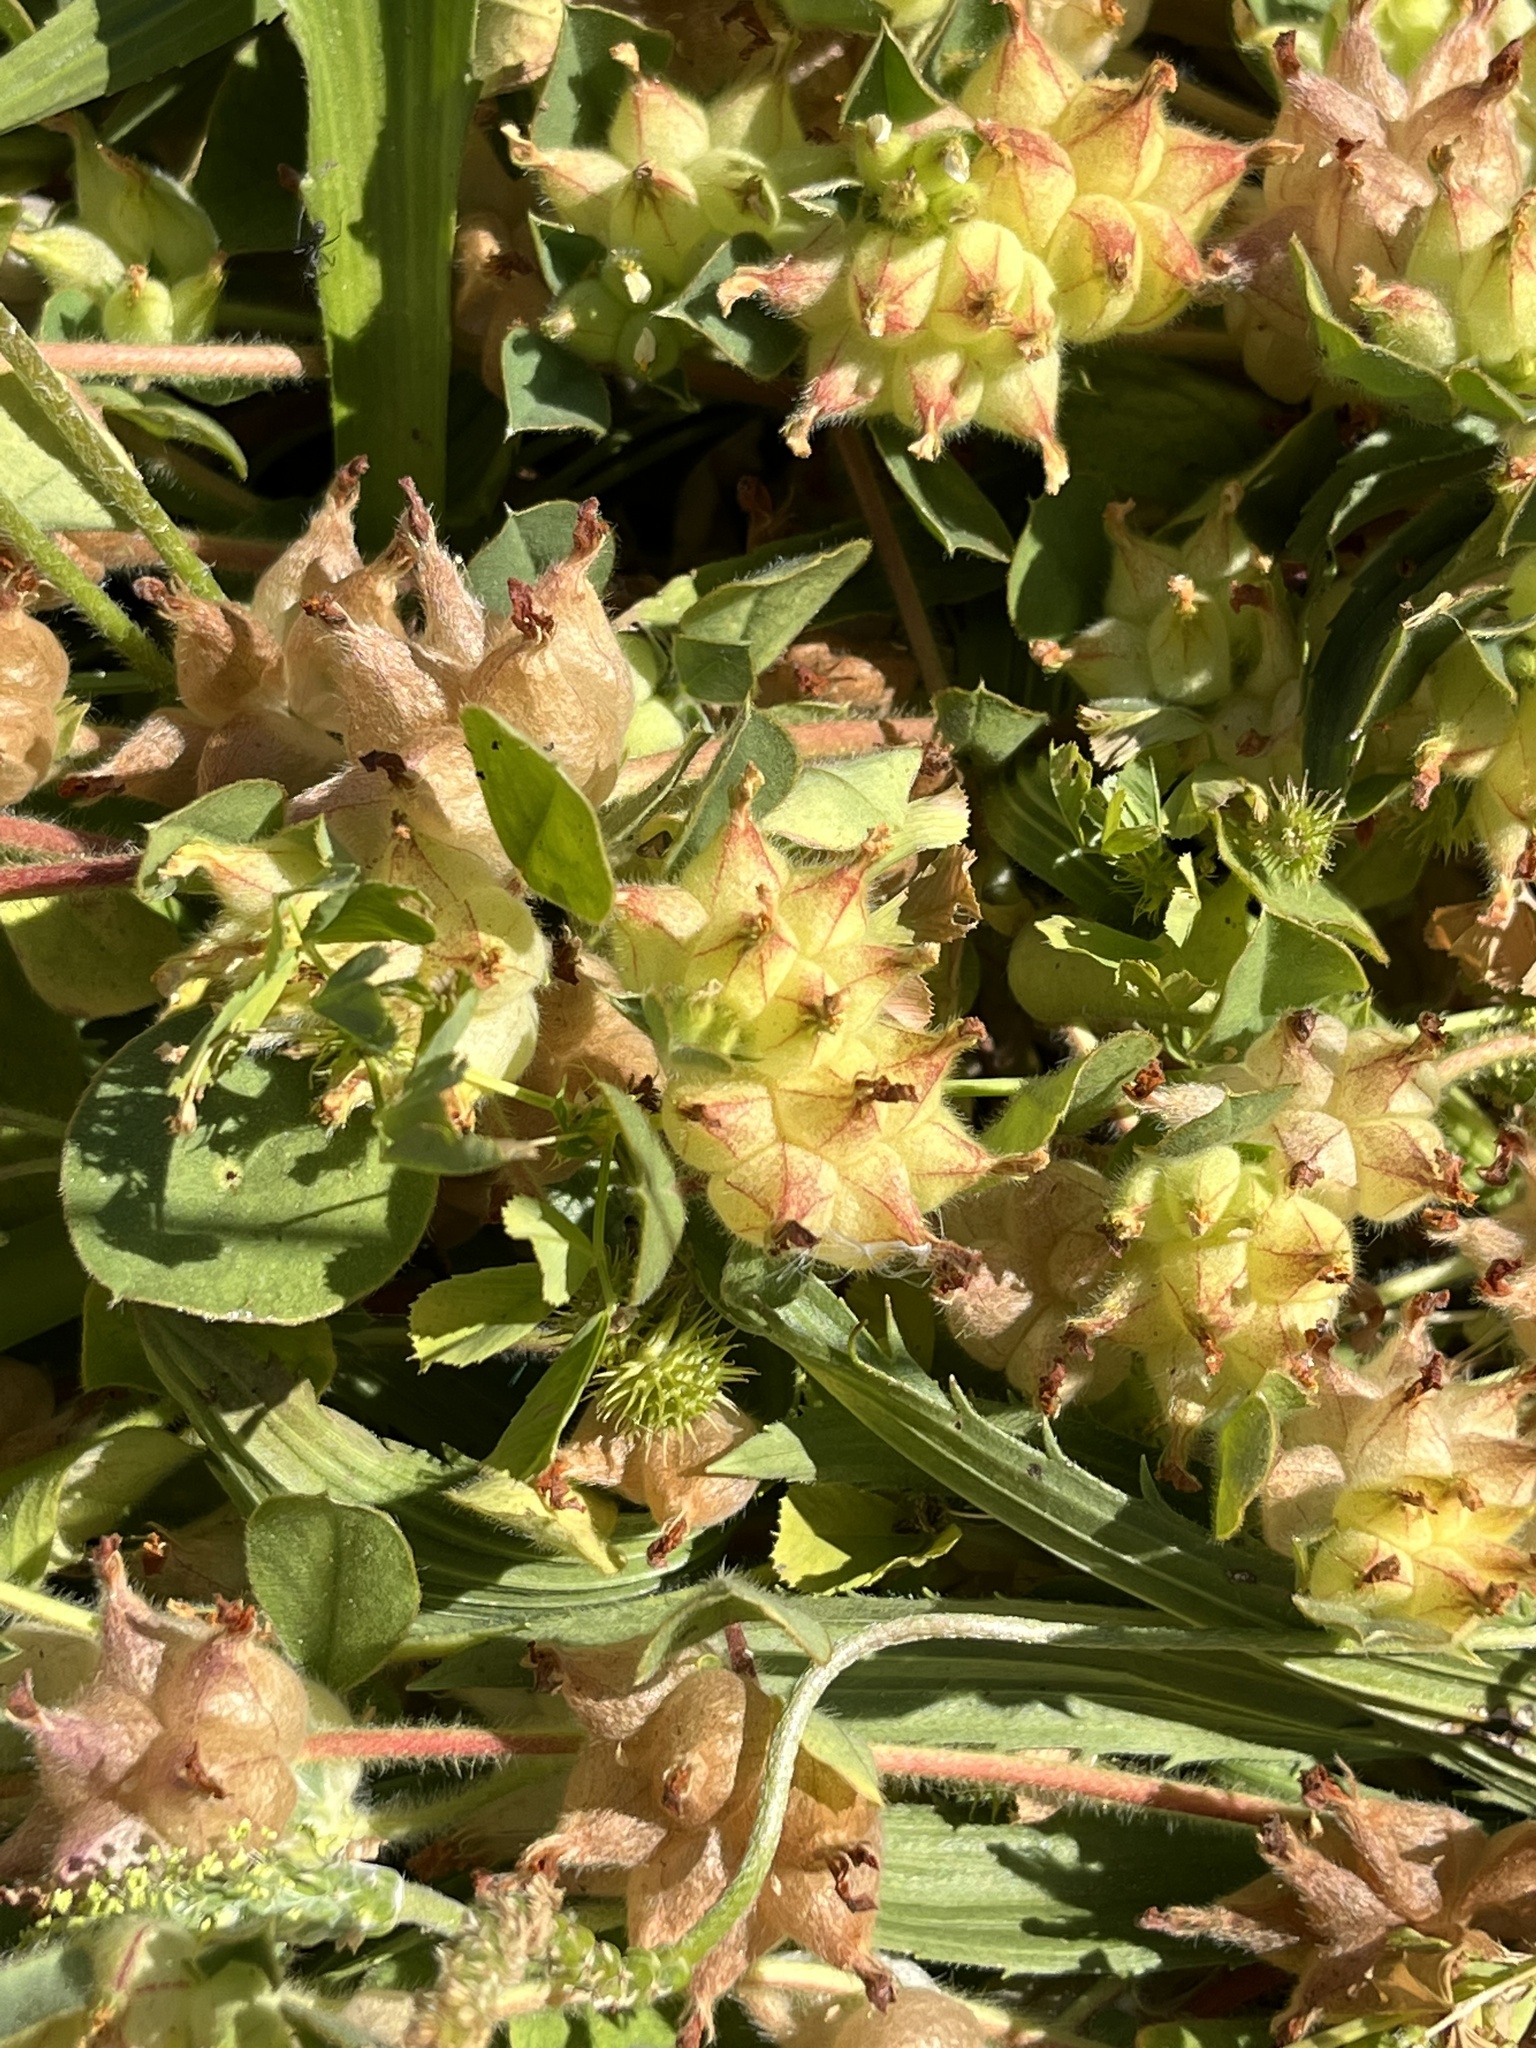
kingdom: Plantae
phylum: Tracheophyta
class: Magnoliopsida
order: Fabales
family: Fabaceae
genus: Tripodion
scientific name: Tripodion tetraphyllum
